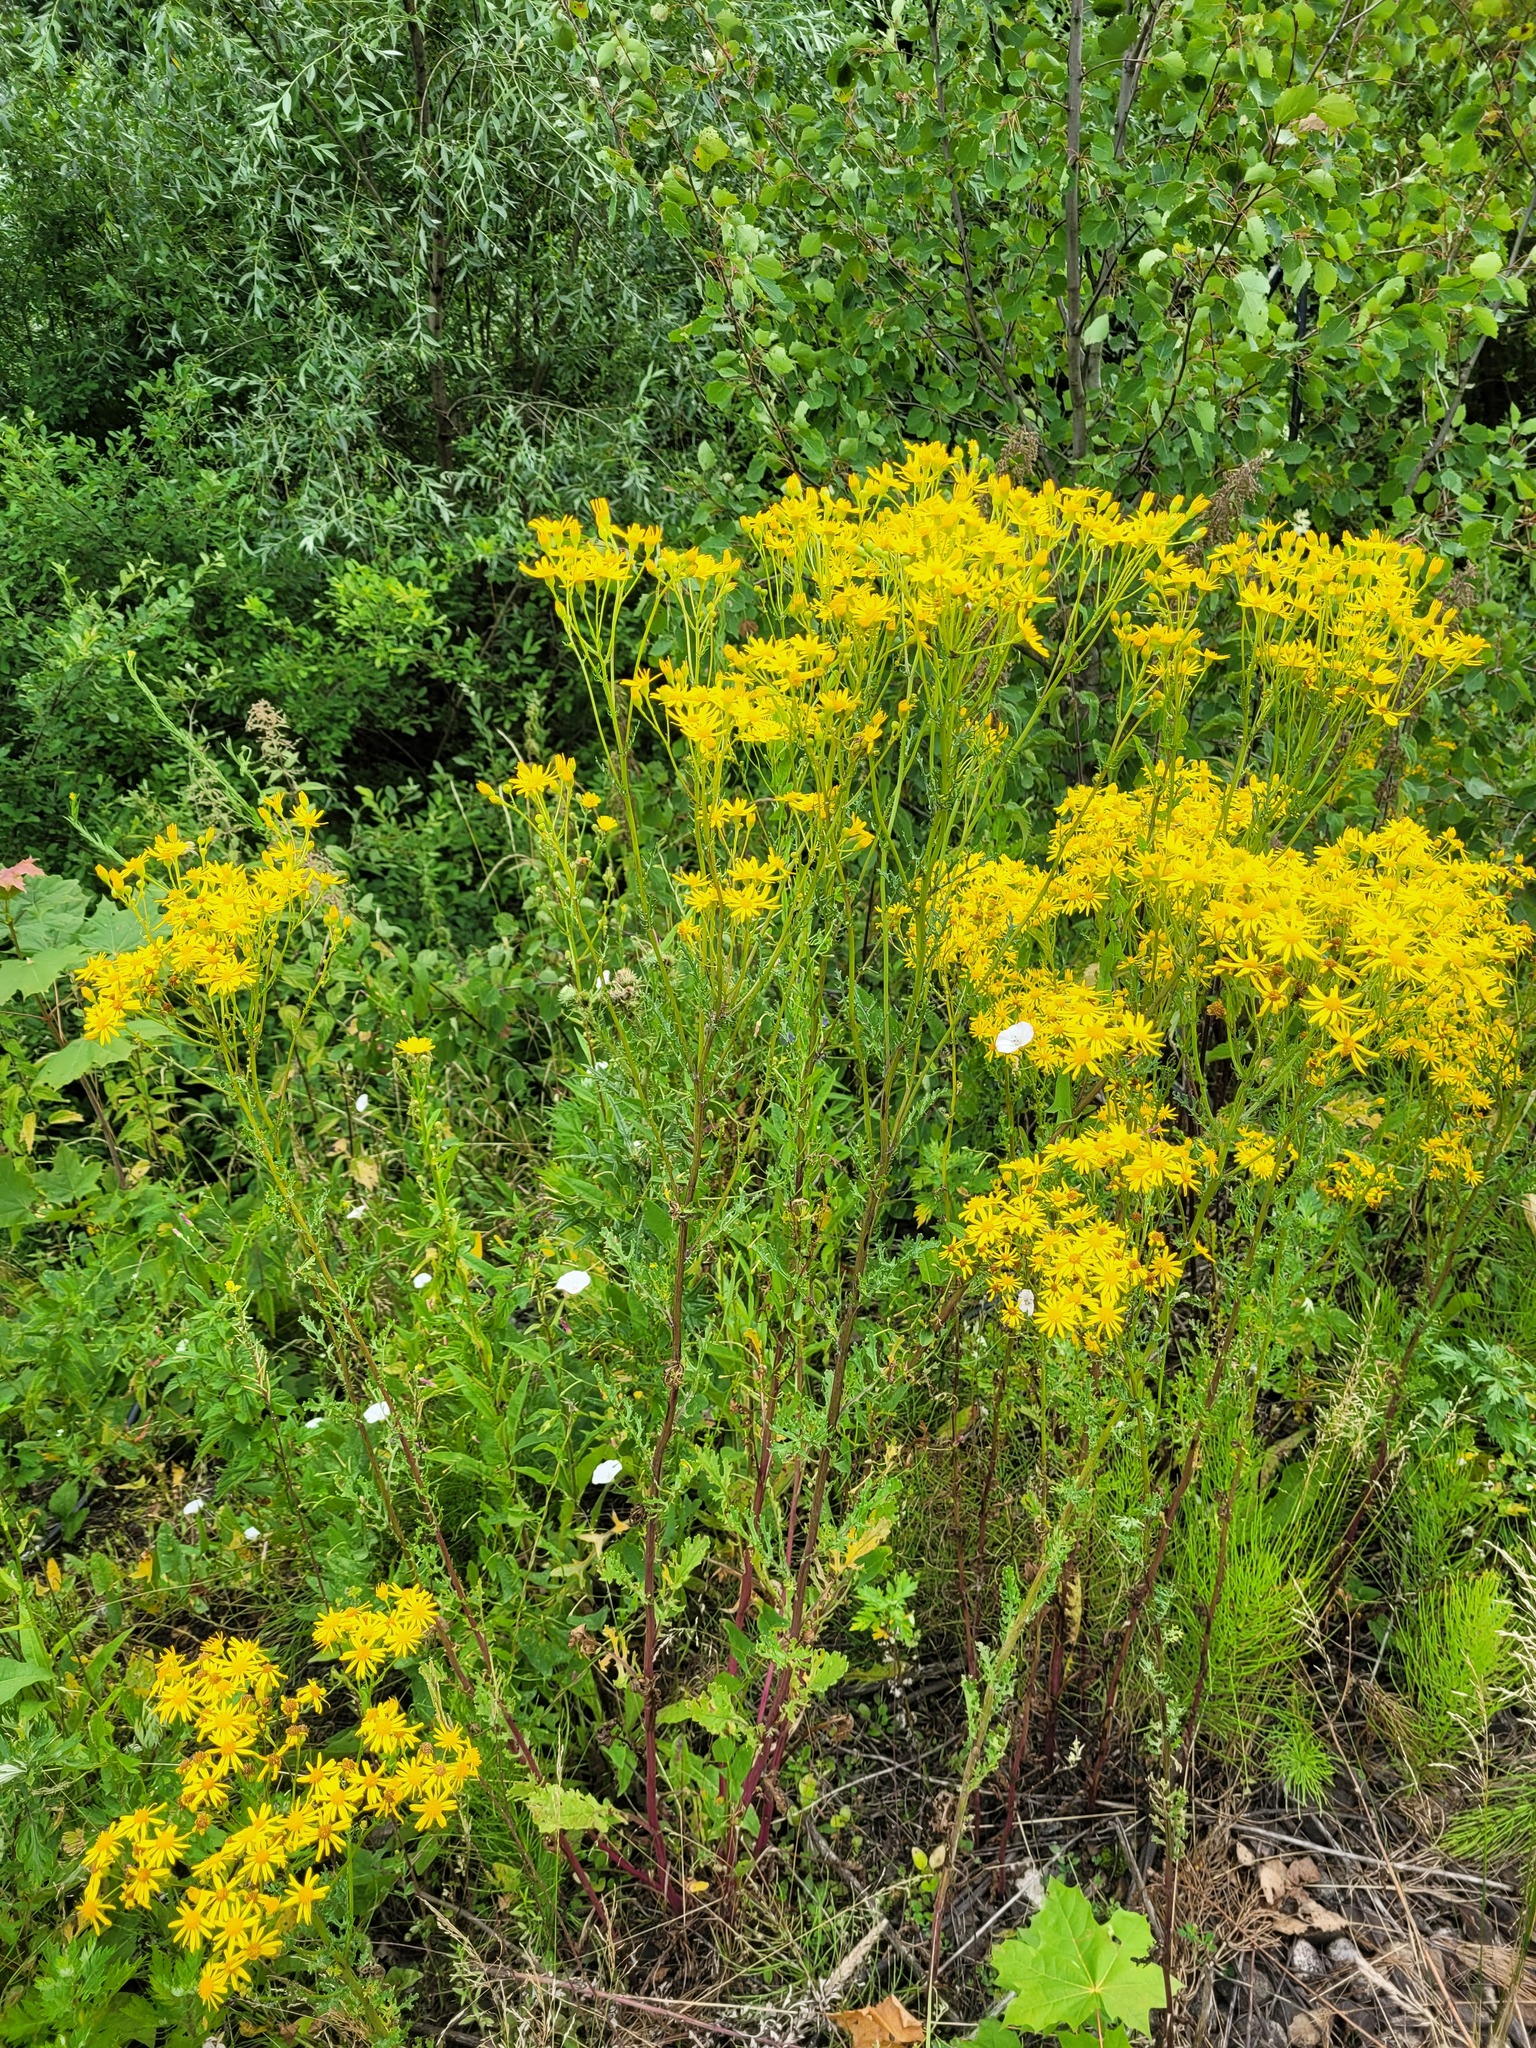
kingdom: Plantae
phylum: Tracheophyta
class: Magnoliopsida
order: Asterales
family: Asteraceae
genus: Jacobaea
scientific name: Jacobaea vulgaris
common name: Stinking willie
